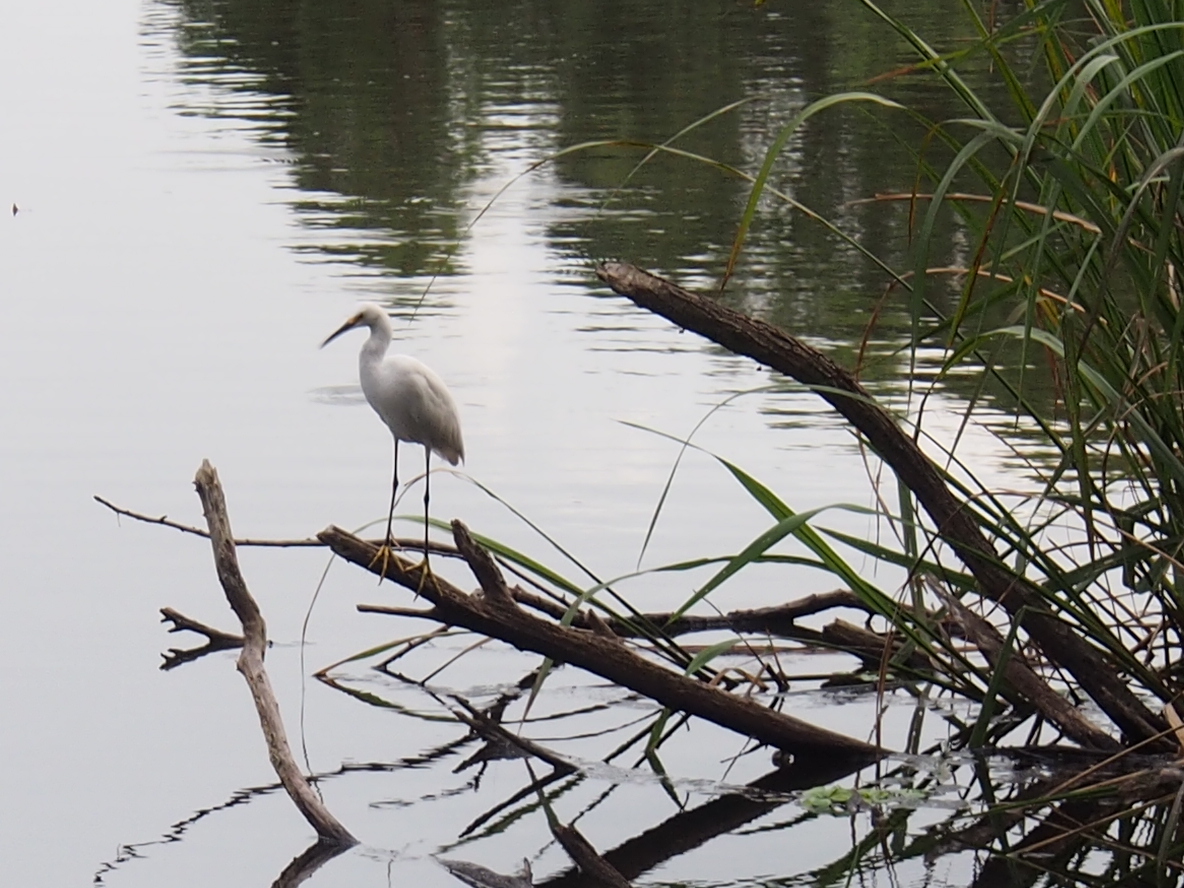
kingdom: Animalia
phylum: Chordata
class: Aves
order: Pelecaniformes
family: Ardeidae
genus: Egretta
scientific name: Egretta thula
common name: Snowy egret
